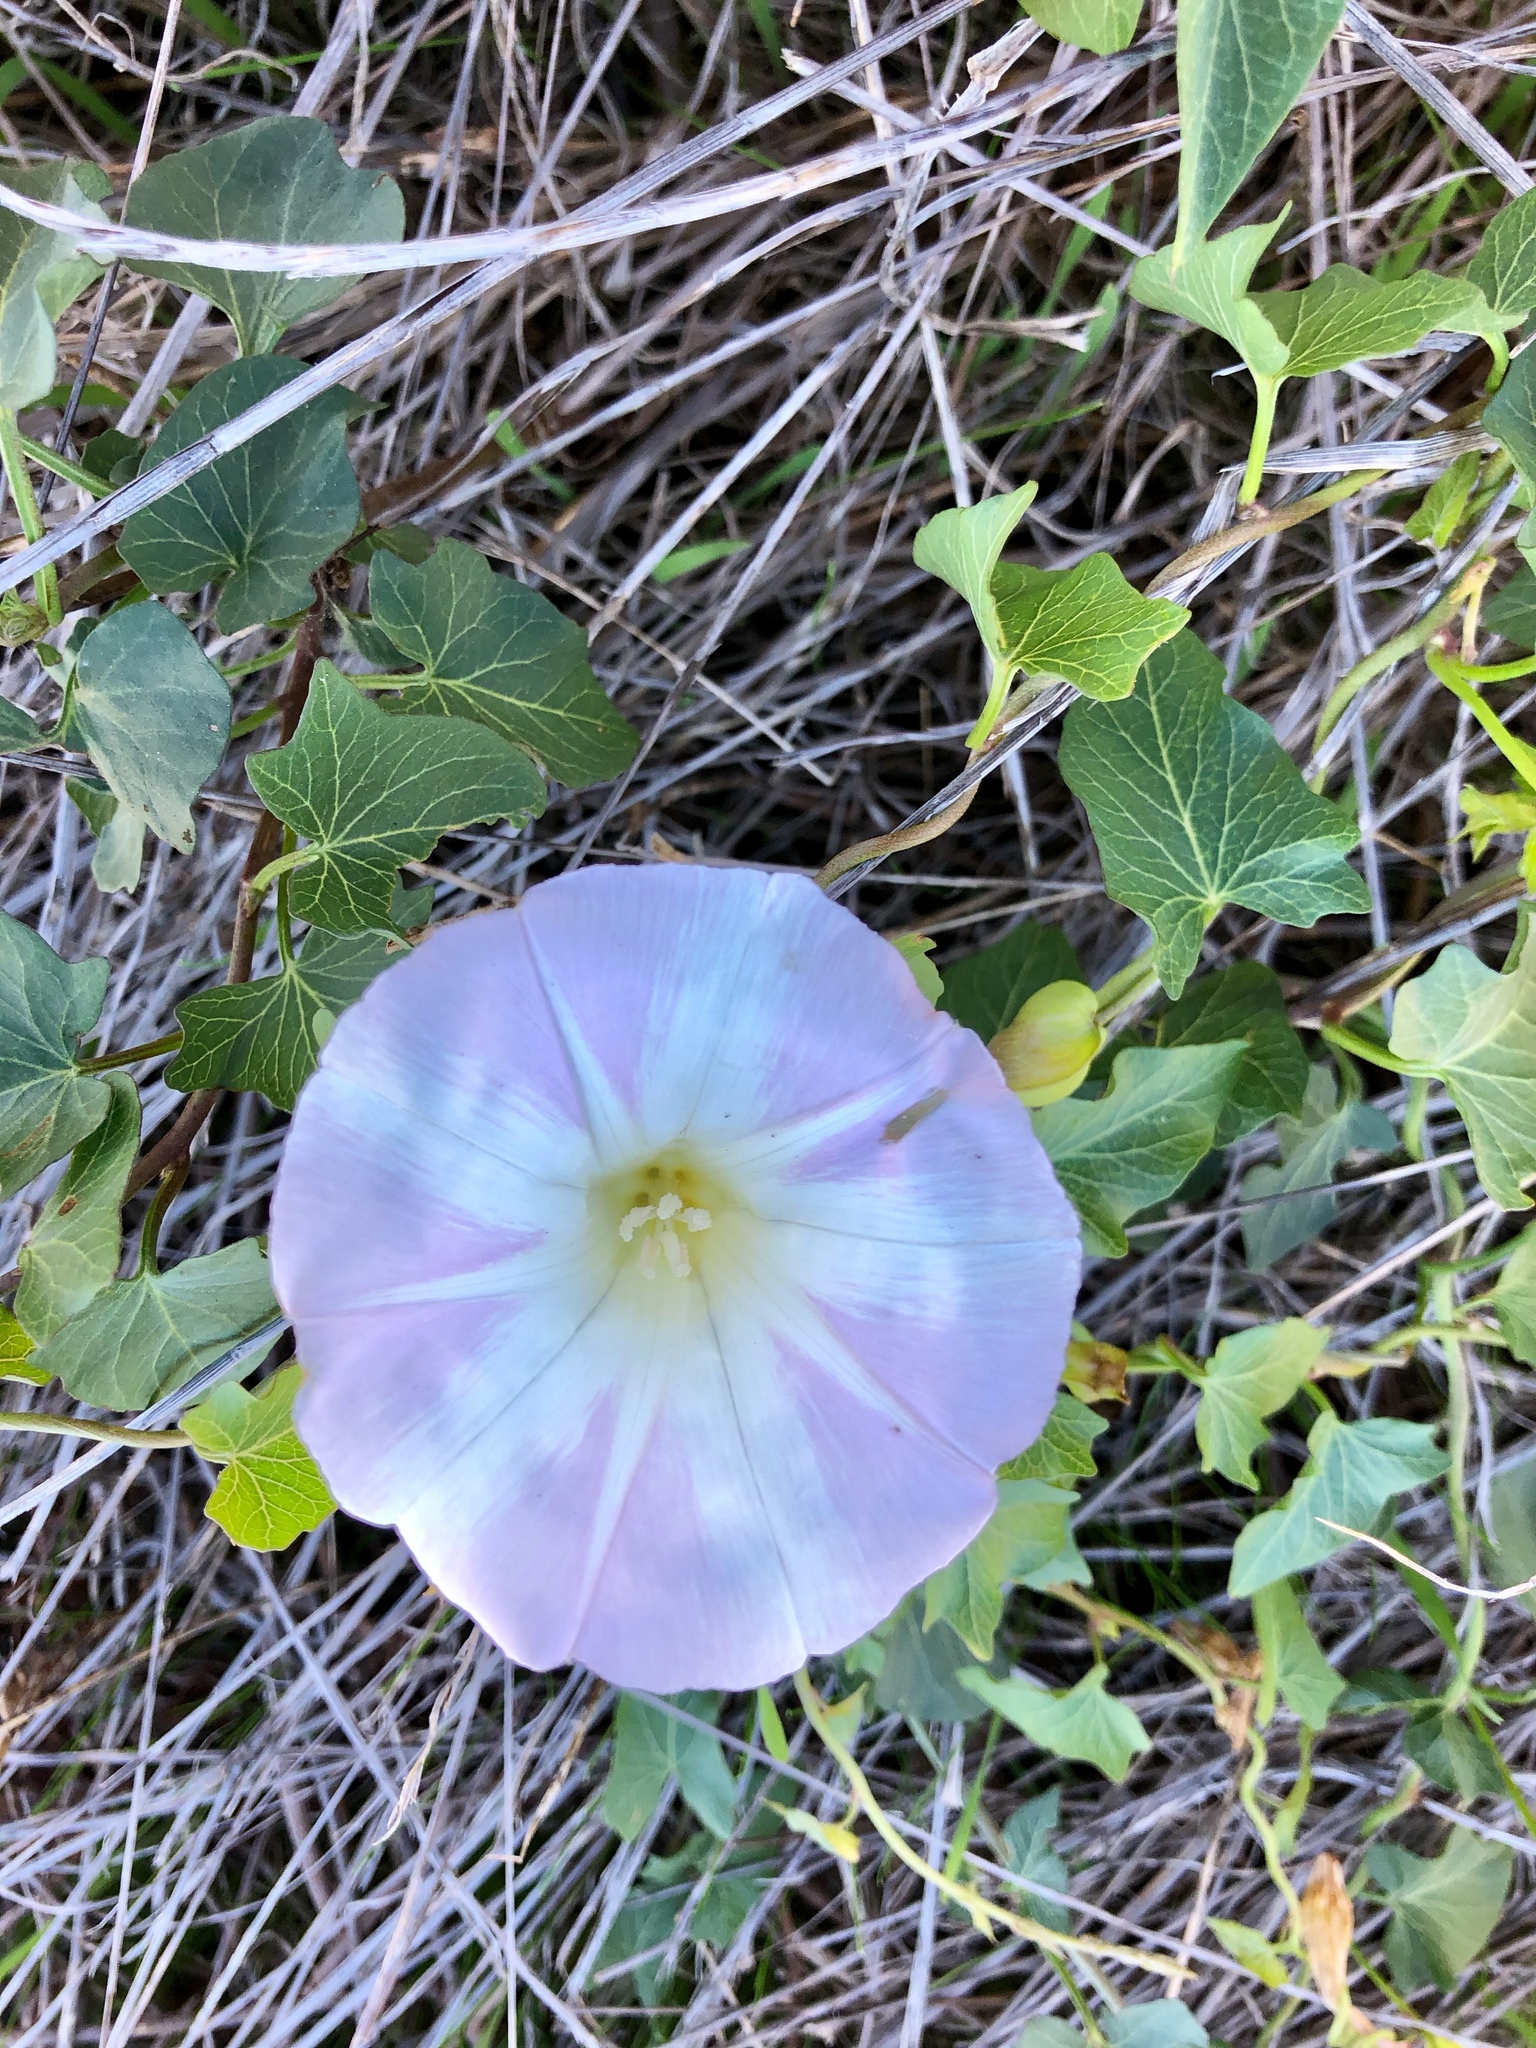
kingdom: Plantae
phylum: Tracheophyta
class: Magnoliopsida
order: Solanales
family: Convolvulaceae
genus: Calystegia
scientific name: Calystegia macrostegia
